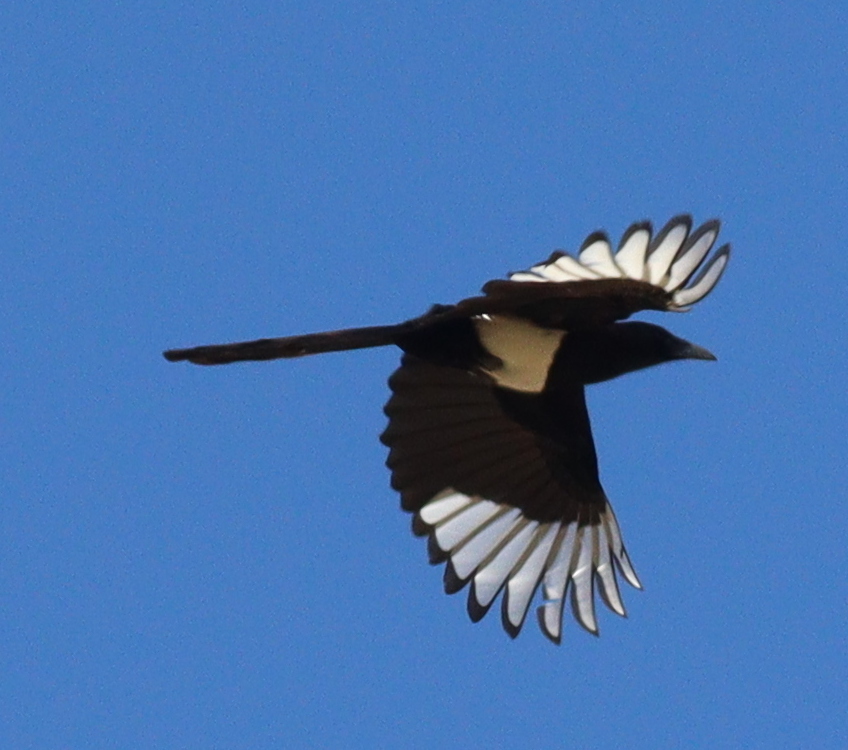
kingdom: Animalia
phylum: Chordata
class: Aves
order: Passeriformes
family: Corvidae
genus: Pica
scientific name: Pica asirensis
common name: Asir magpie
